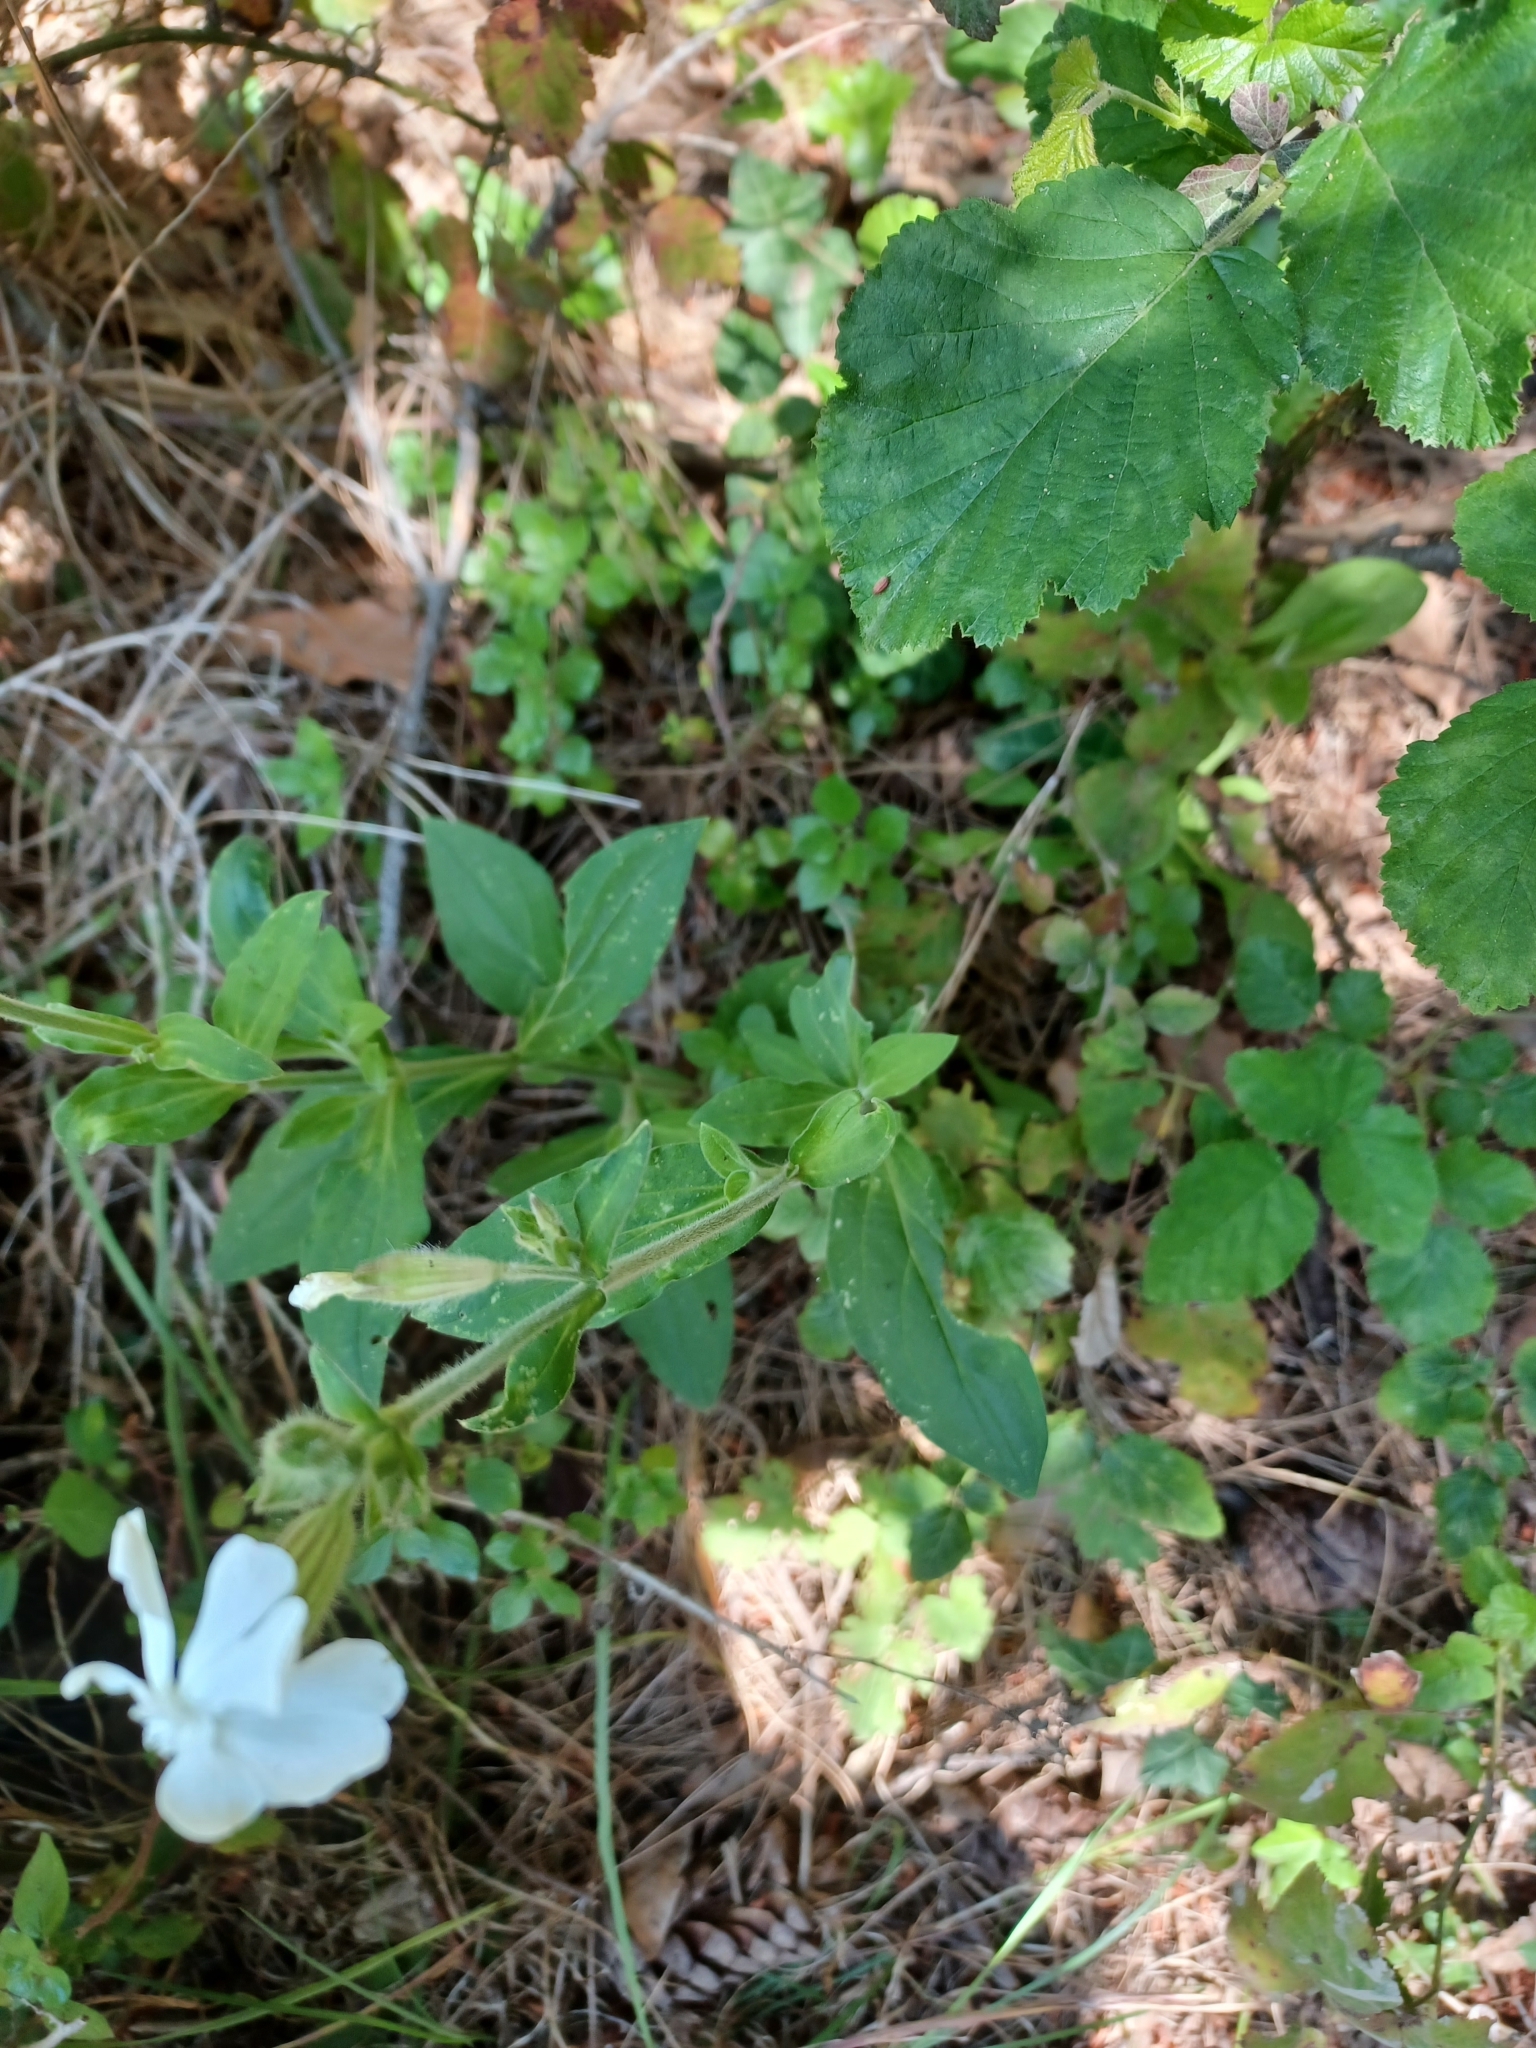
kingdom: Plantae
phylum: Tracheophyta
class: Magnoliopsida
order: Caryophyllales
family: Caryophyllaceae
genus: Silene
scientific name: Silene latifolia
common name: White campion
